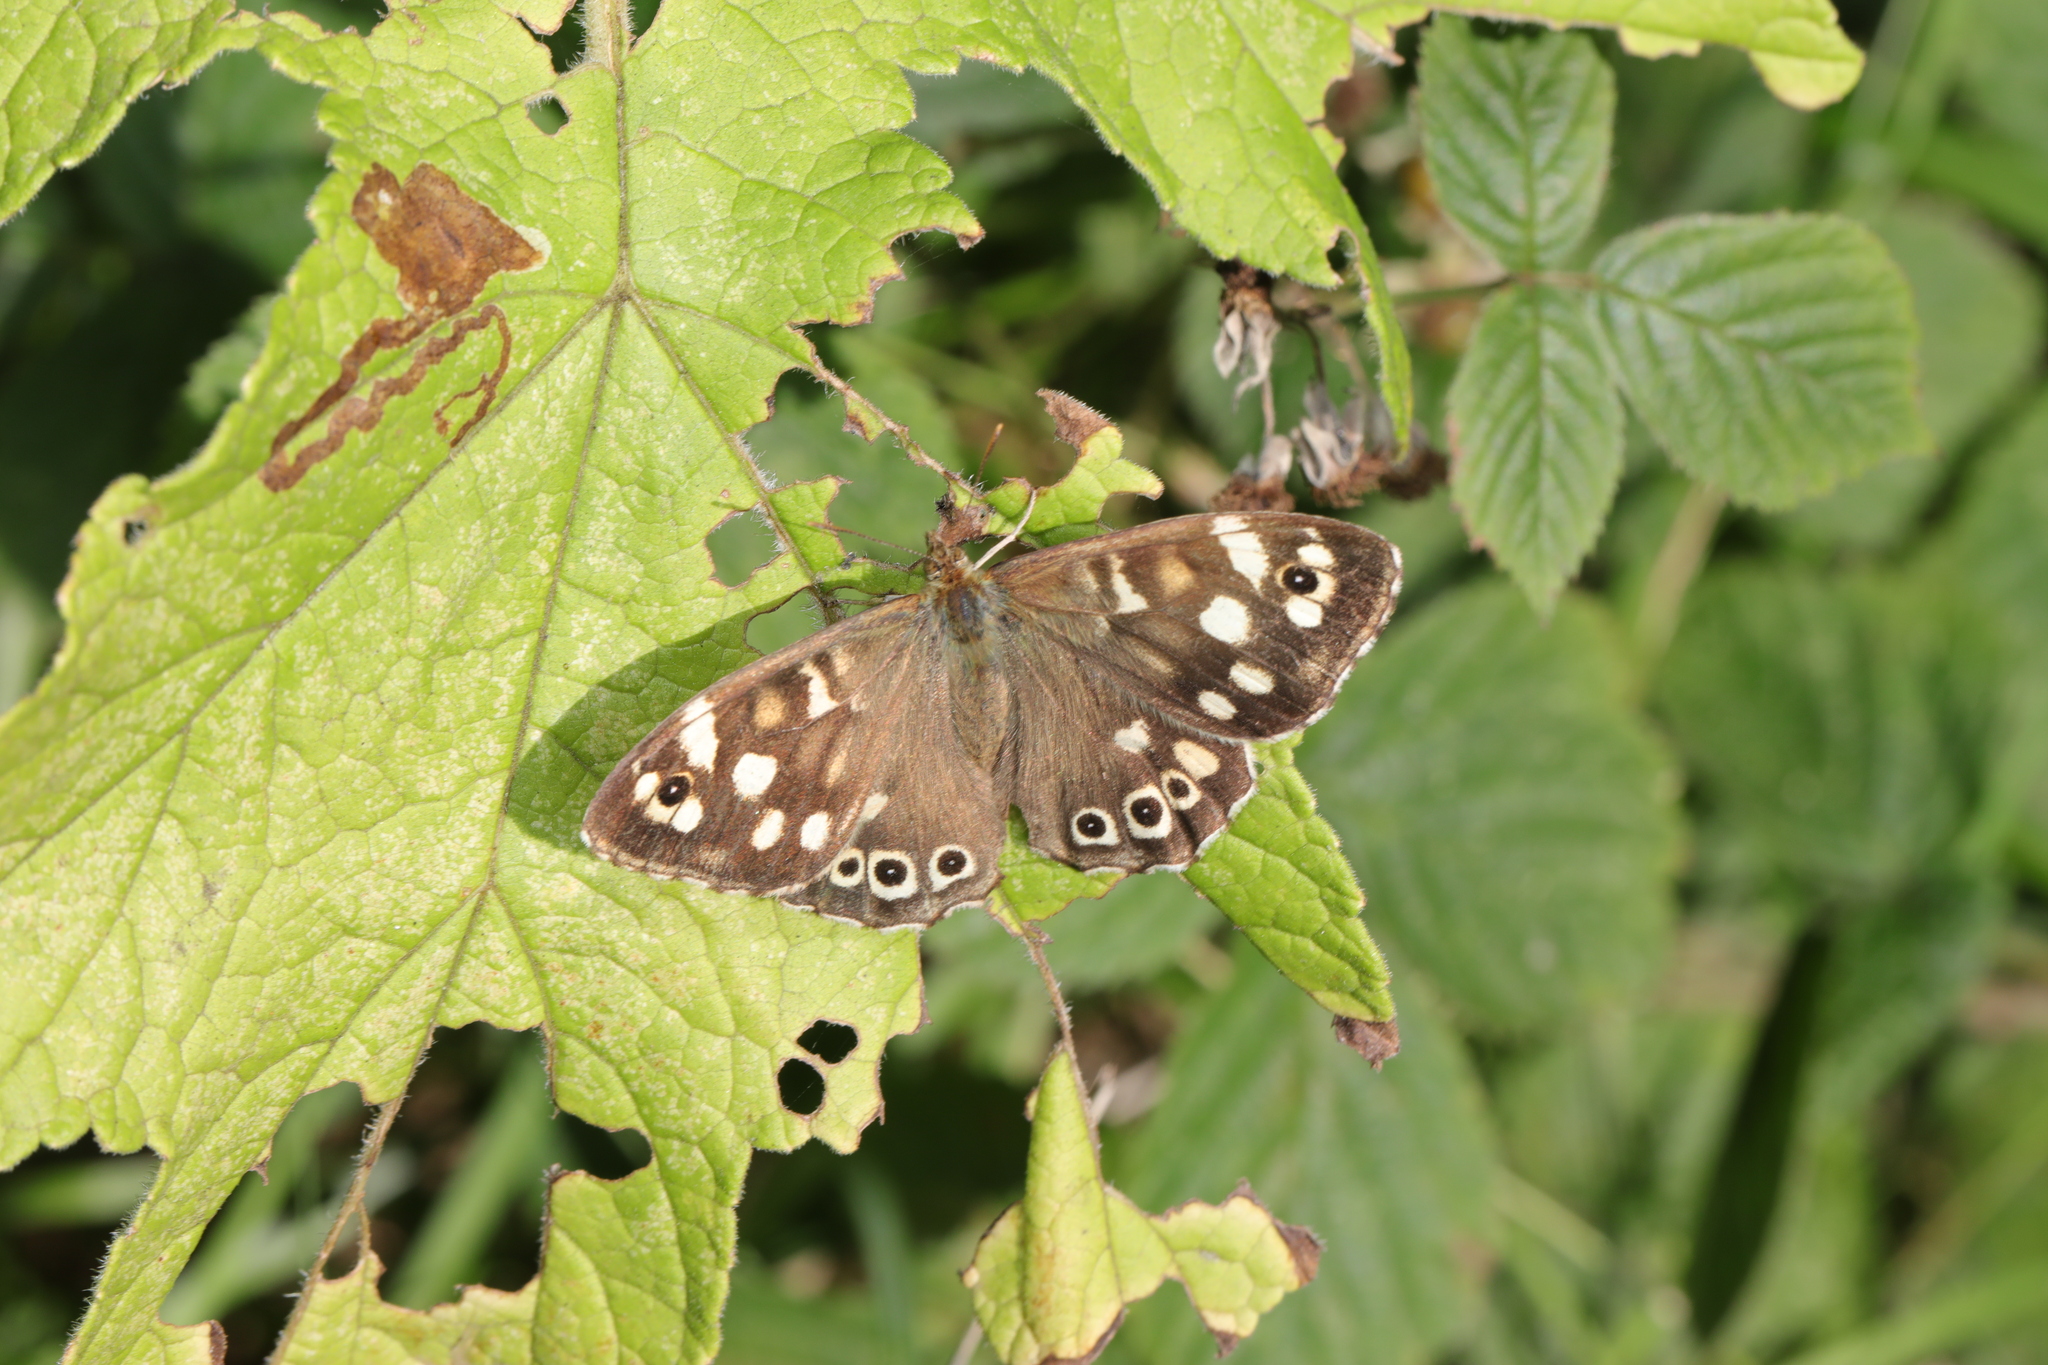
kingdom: Animalia
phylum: Arthropoda
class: Insecta
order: Lepidoptera
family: Nymphalidae
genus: Pararge
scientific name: Pararge aegeria
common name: Speckled wood
